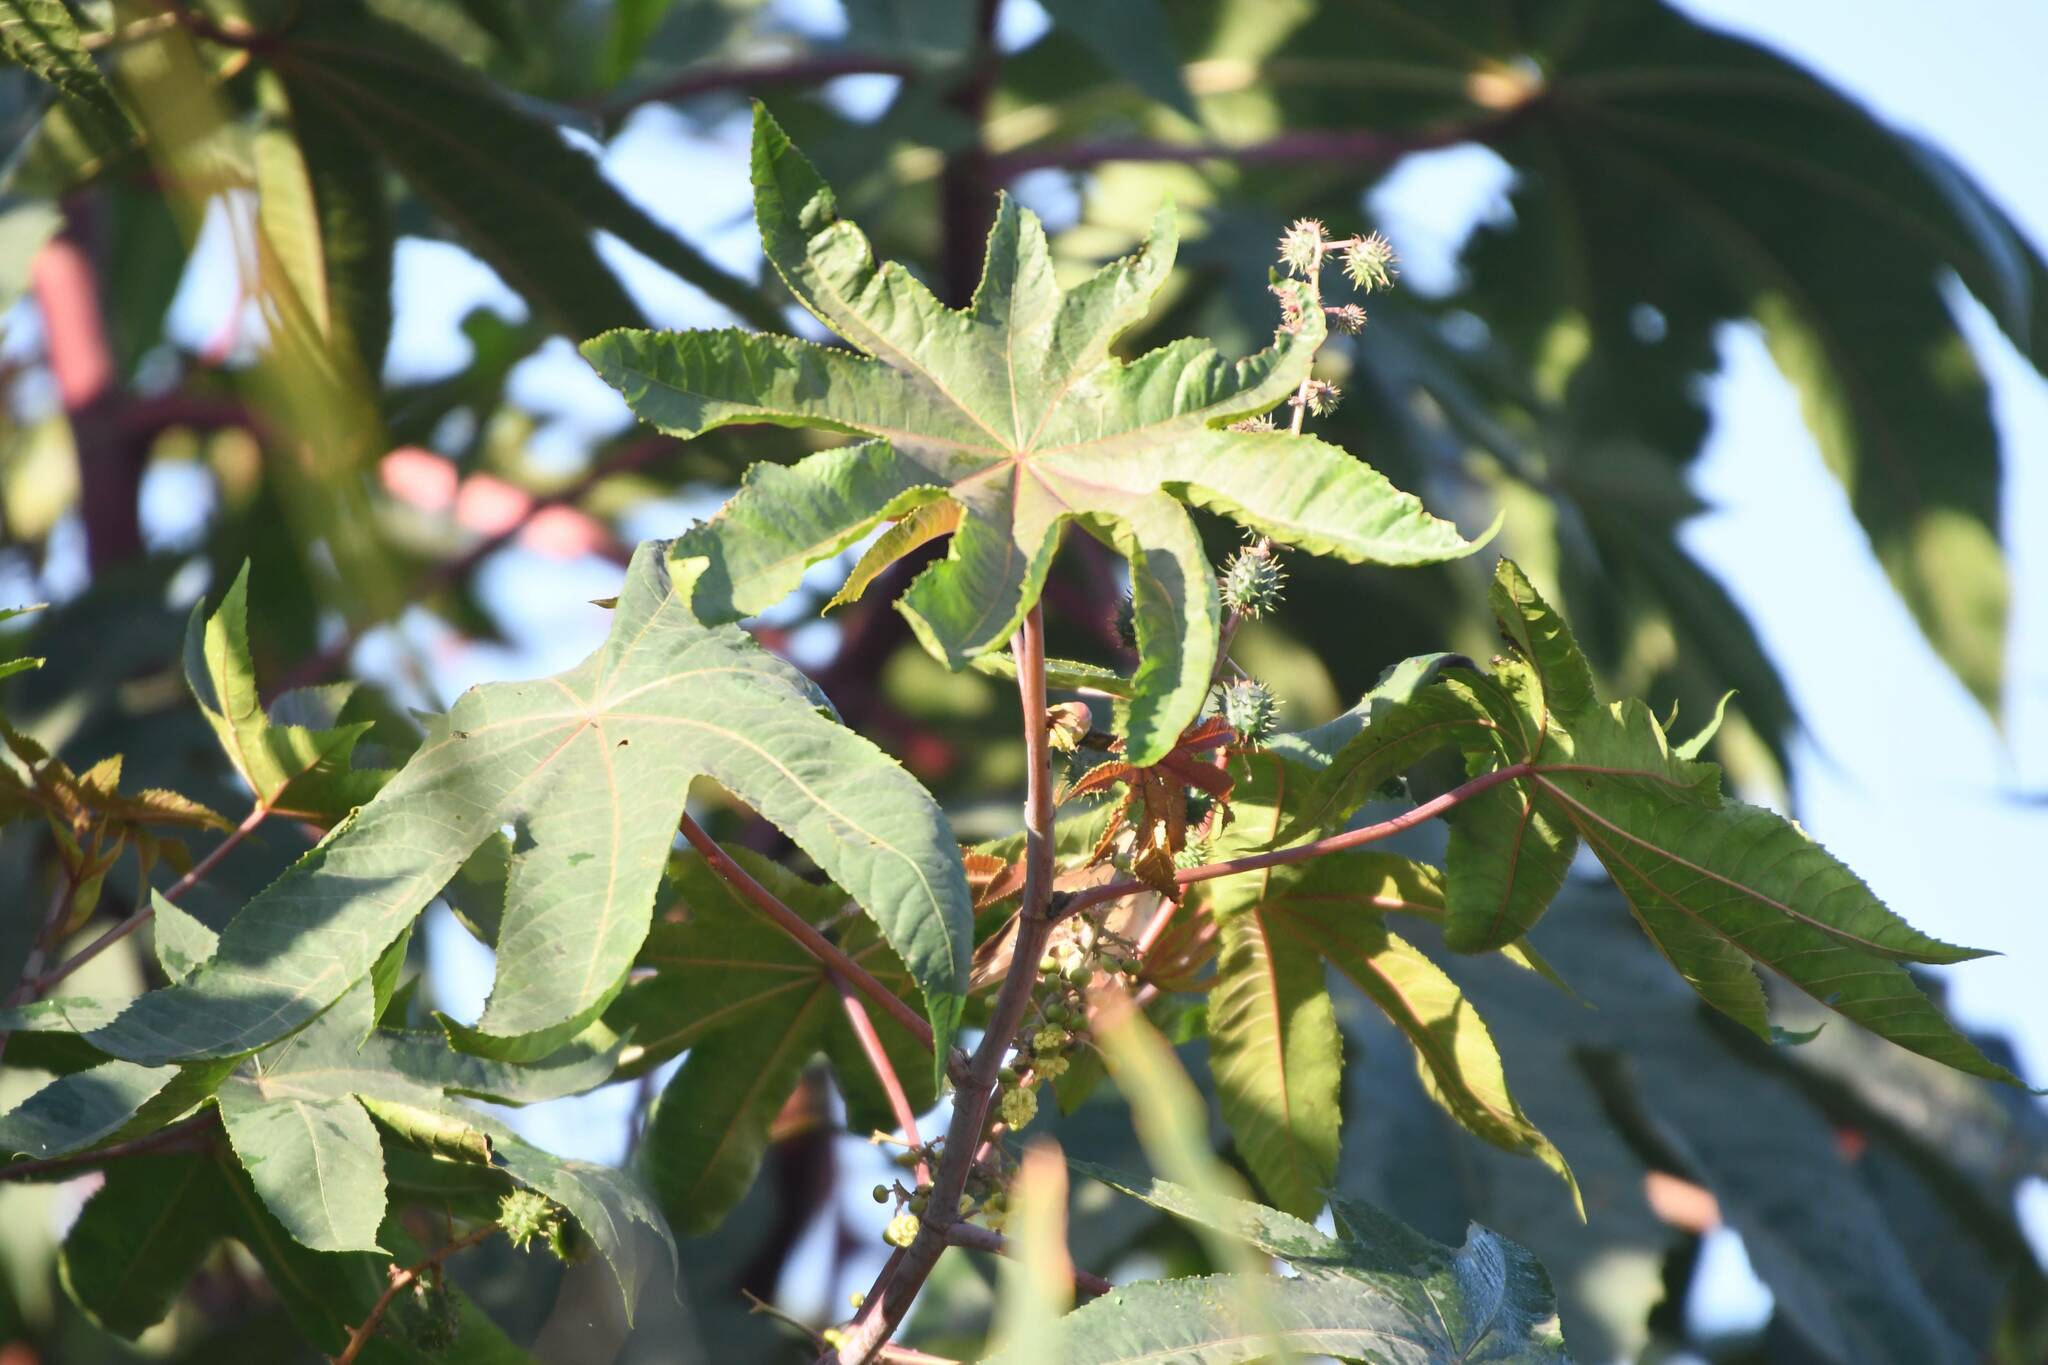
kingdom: Plantae
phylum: Tracheophyta
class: Magnoliopsida
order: Malpighiales
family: Euphorbiaceae
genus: Ricinus
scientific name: Ricinus communis
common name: Castor-oil-plant
